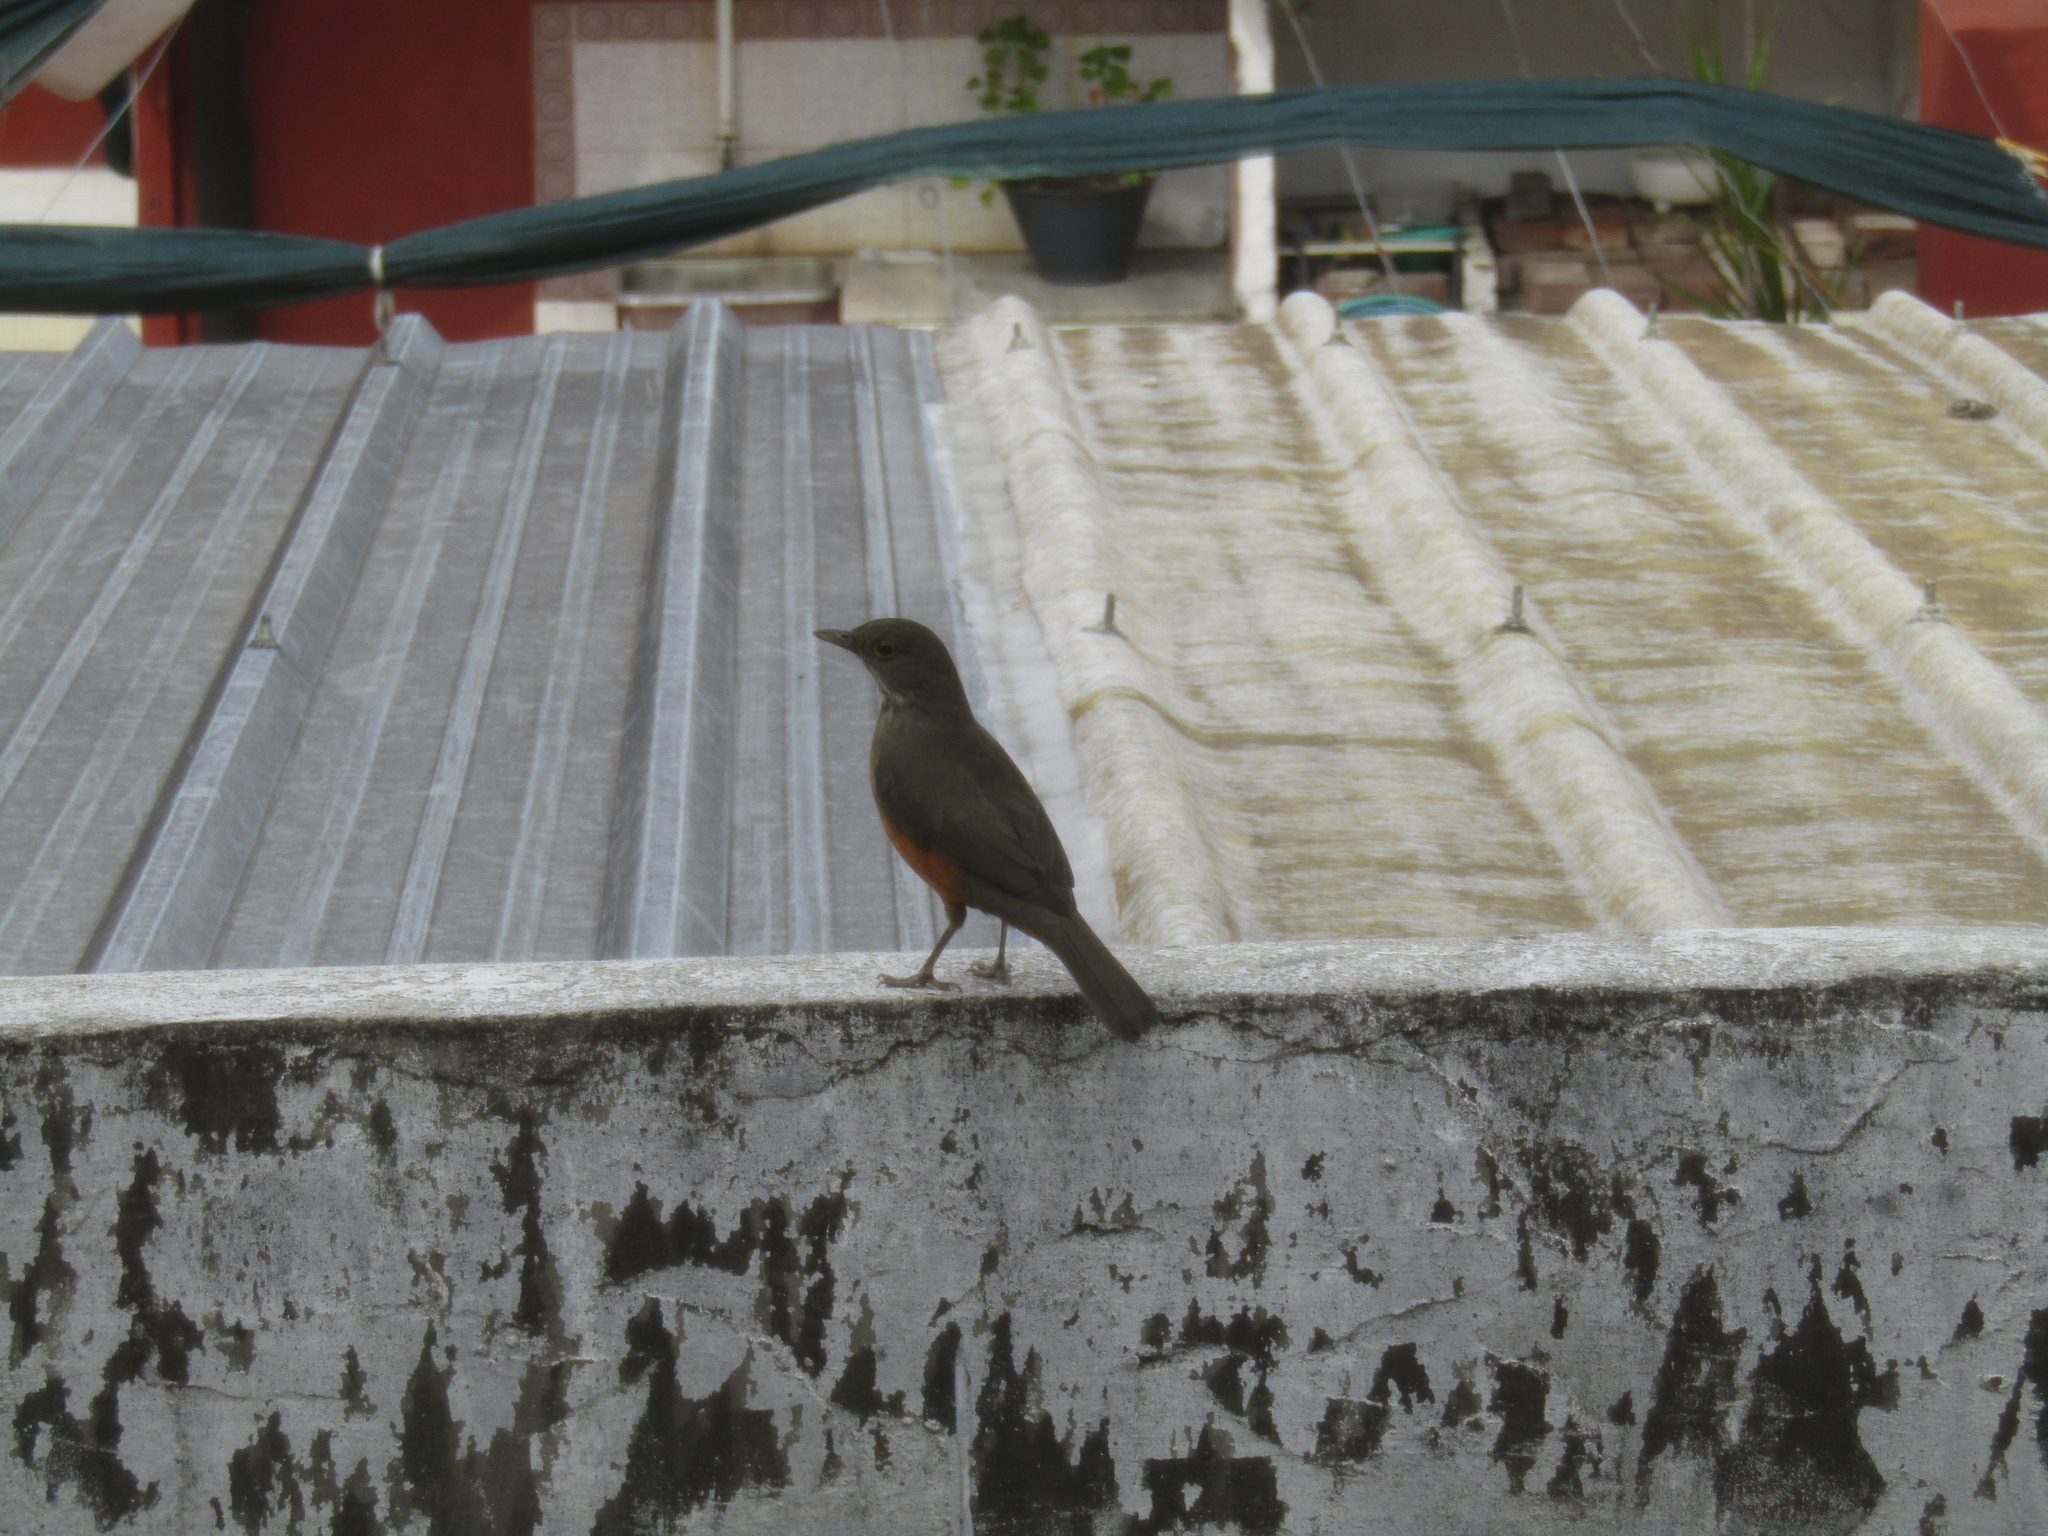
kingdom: Animalia
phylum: Chordata
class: Aves
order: Passeriformes
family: Turdidae
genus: Turdus
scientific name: Turdus rufiventris
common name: Rufous-bellied thrush
